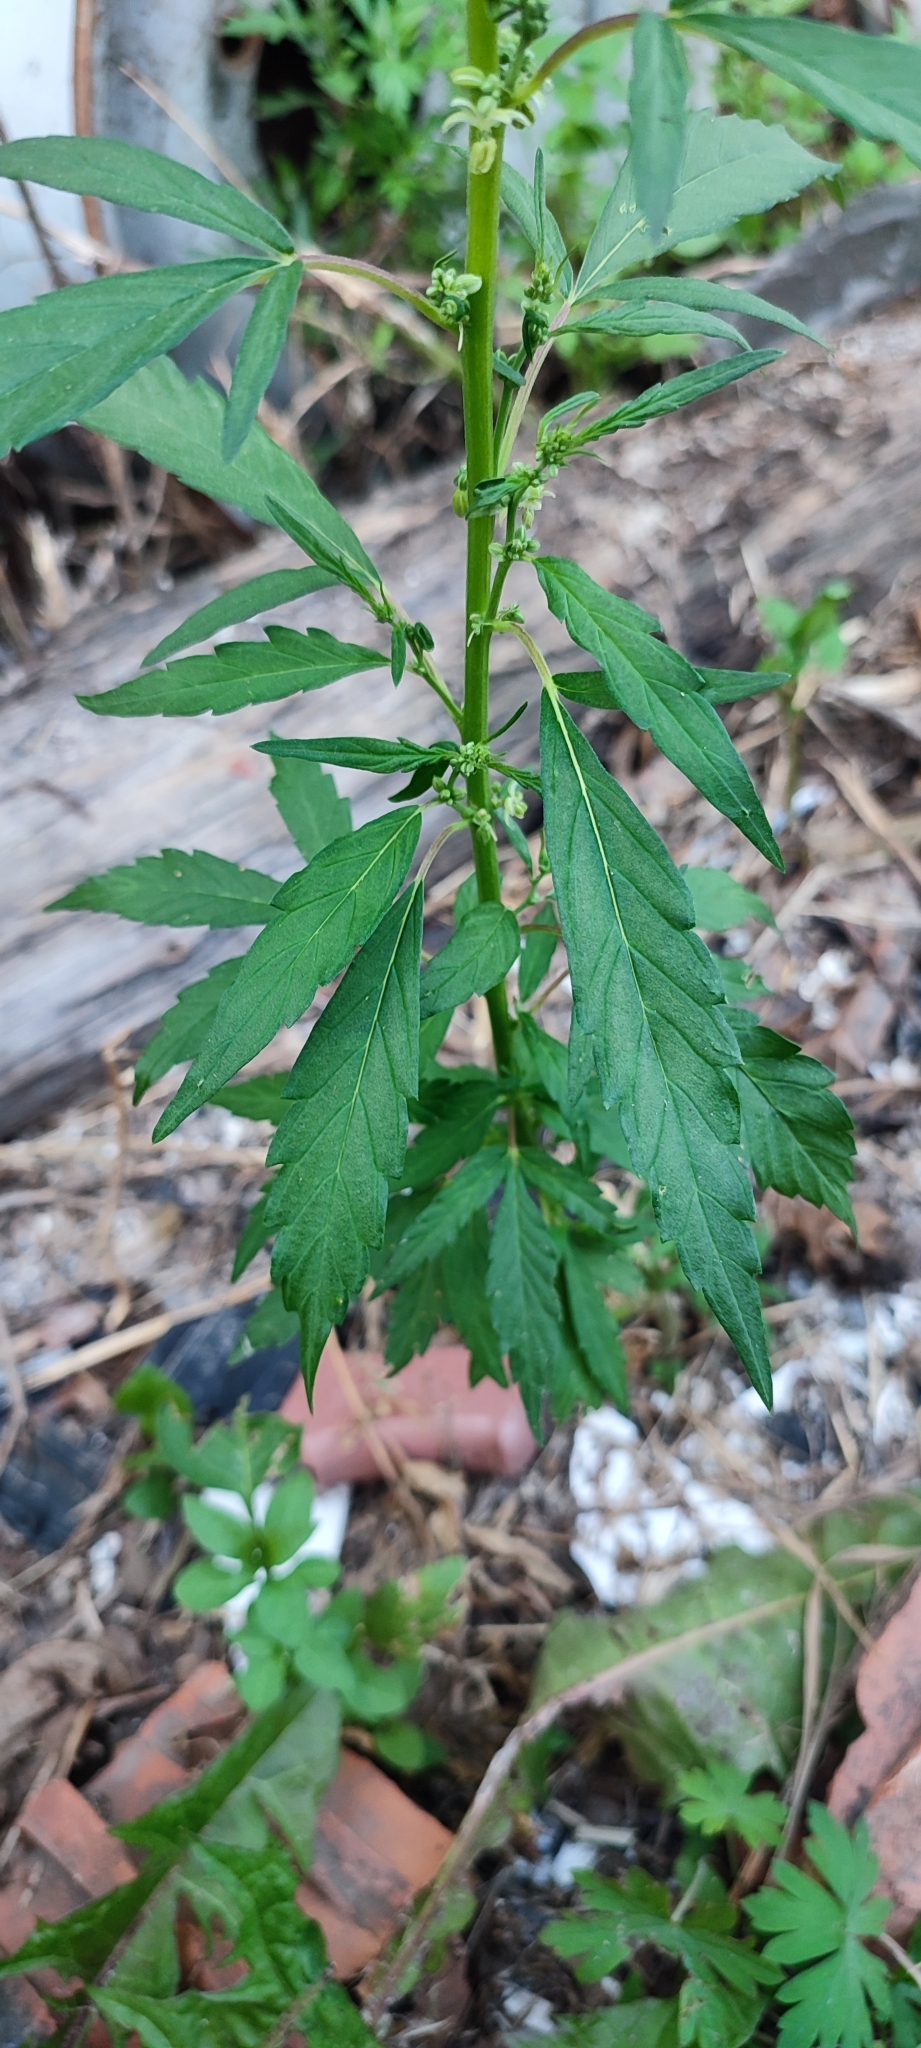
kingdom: Plantae
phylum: Tracheophyta
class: Magnoliopsida
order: Rosales
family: Cannabaceae
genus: Cannabis
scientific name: Cannabis sativa
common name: Hemp
